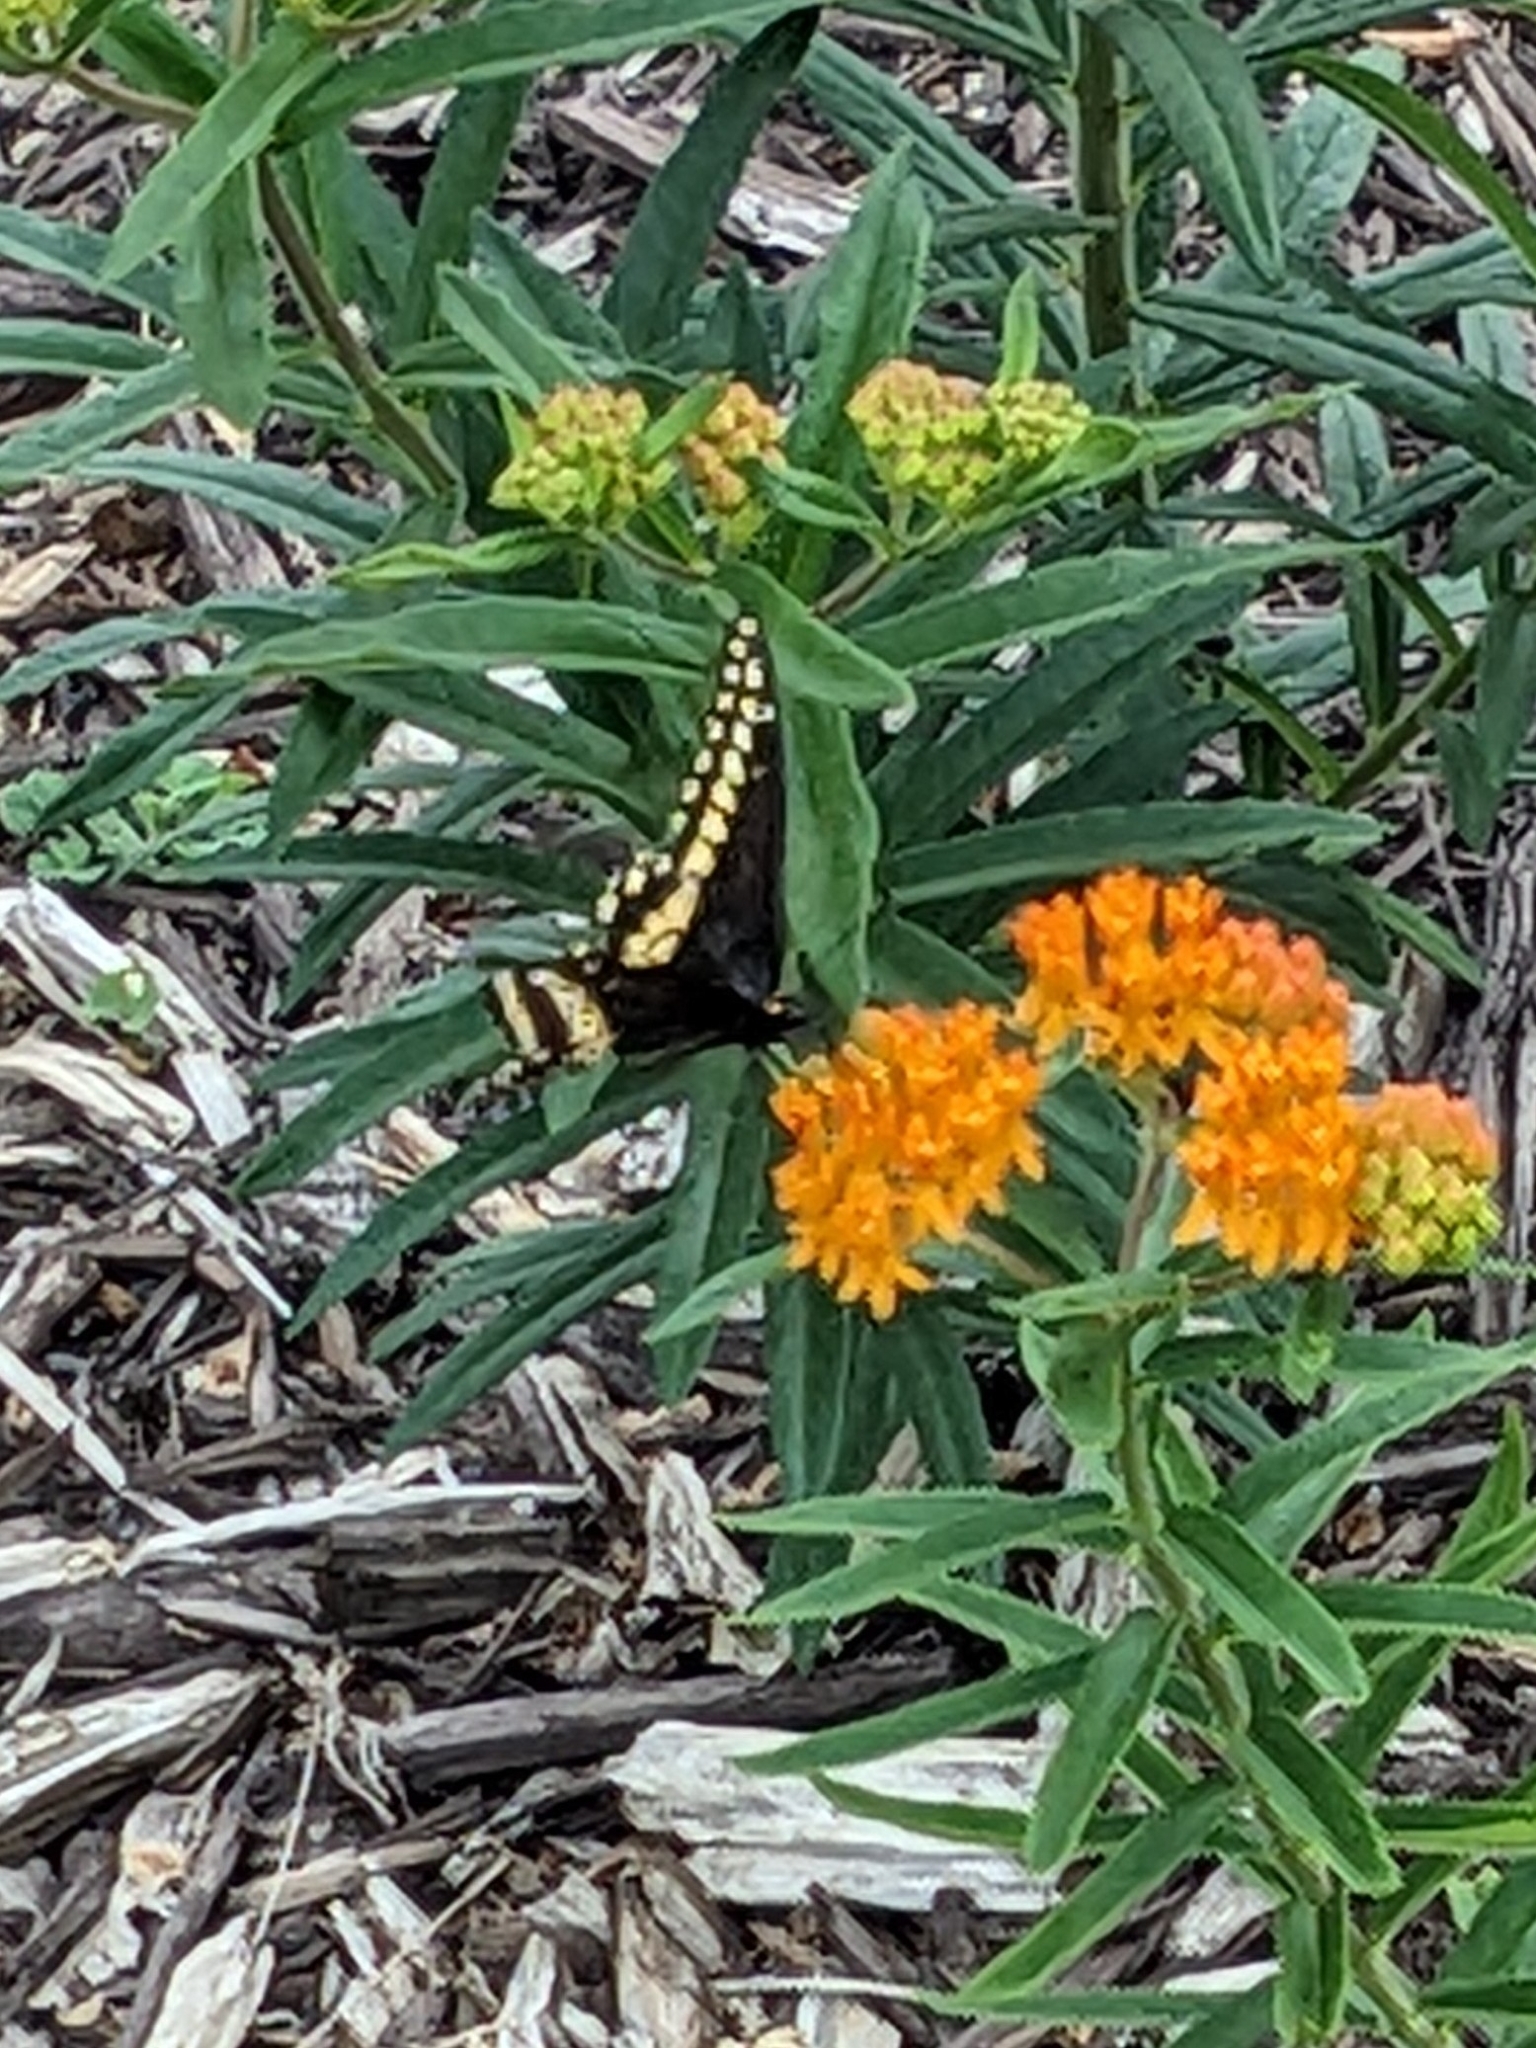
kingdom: Animalia
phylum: Arthropoda
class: Insecta
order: Lepidoptera
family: Papilionidae
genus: Papilio
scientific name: Papilio polyxenes
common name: Black swallowtail
